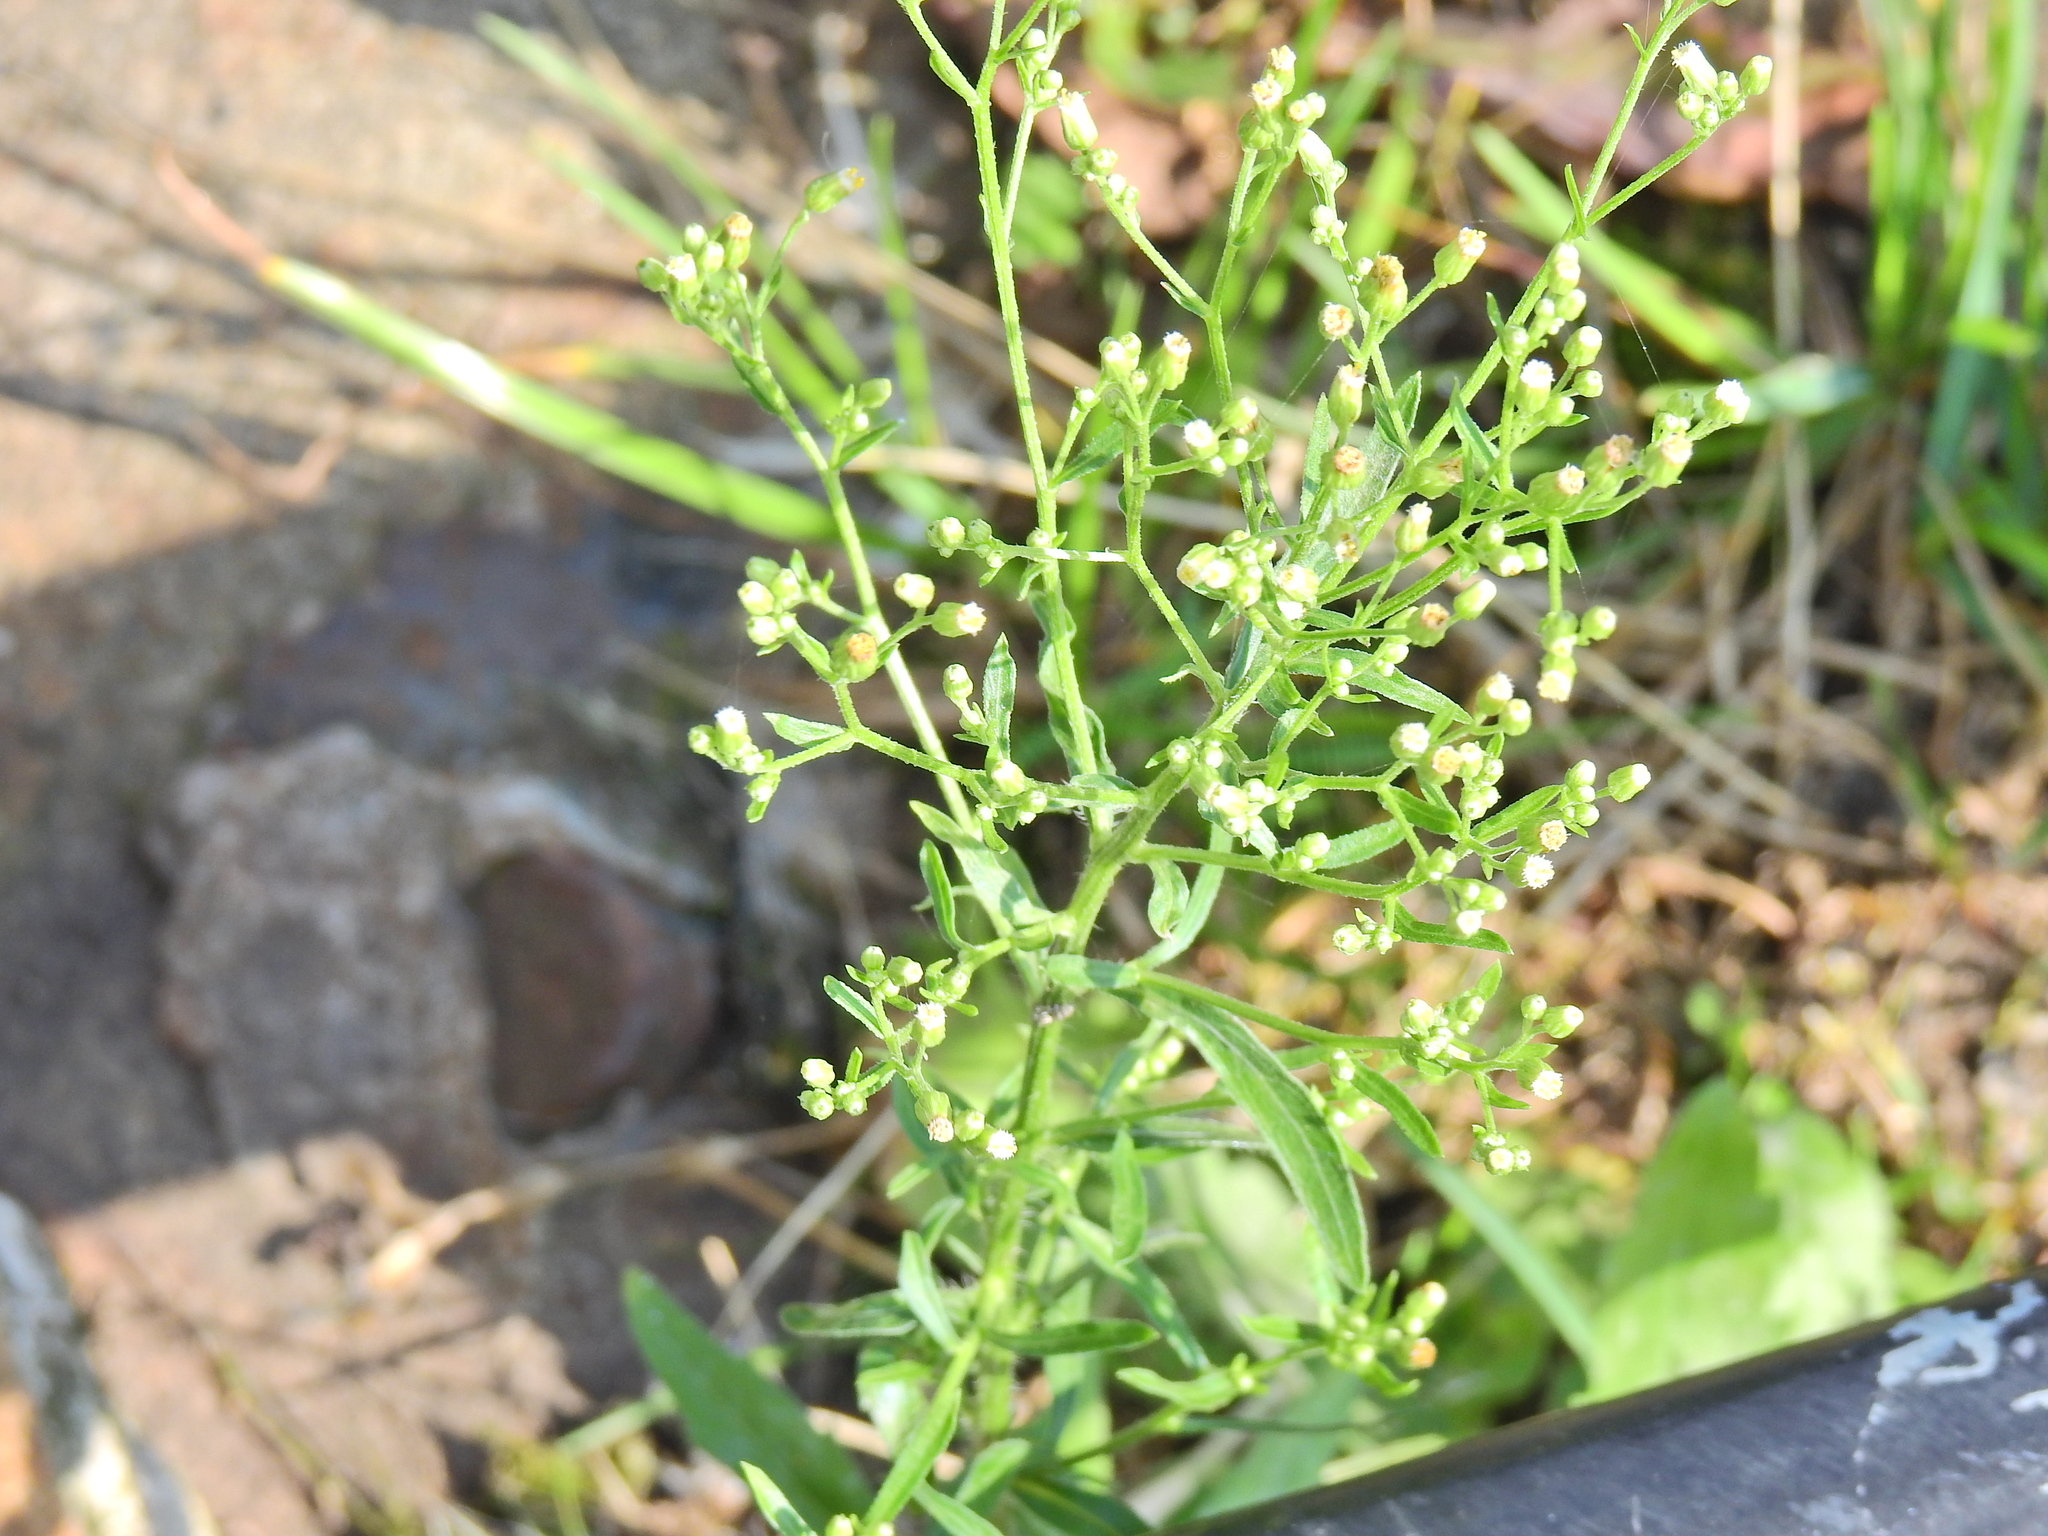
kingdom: Plantae
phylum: Tracheophyta
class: Magnoliopsida
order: Asterales
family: Asteraceae
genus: Erigeron
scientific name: Erigeron canadensis
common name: Canadian fleabane
